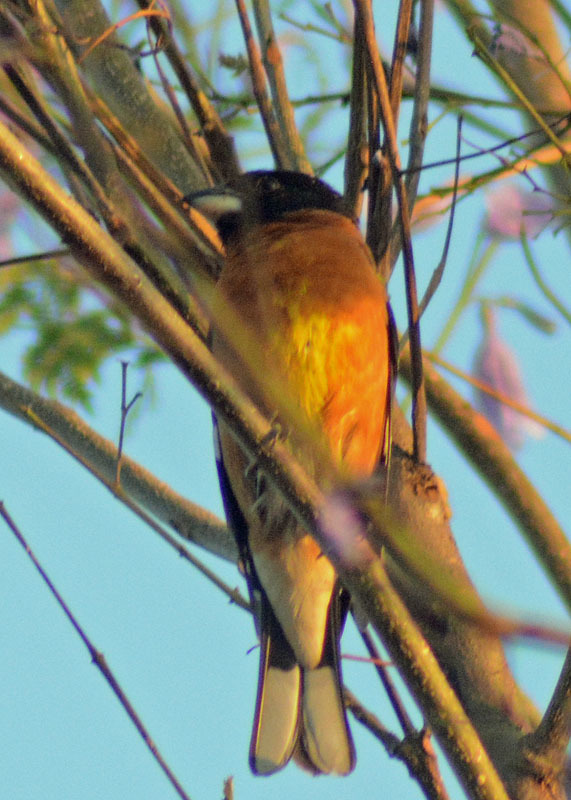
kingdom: Animalia
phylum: Chordata
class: Aves
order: Passeriformes
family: Cardinalidae
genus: Pheucticus
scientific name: Pheucticus melanocephalus
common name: Black-headed grosbeak
